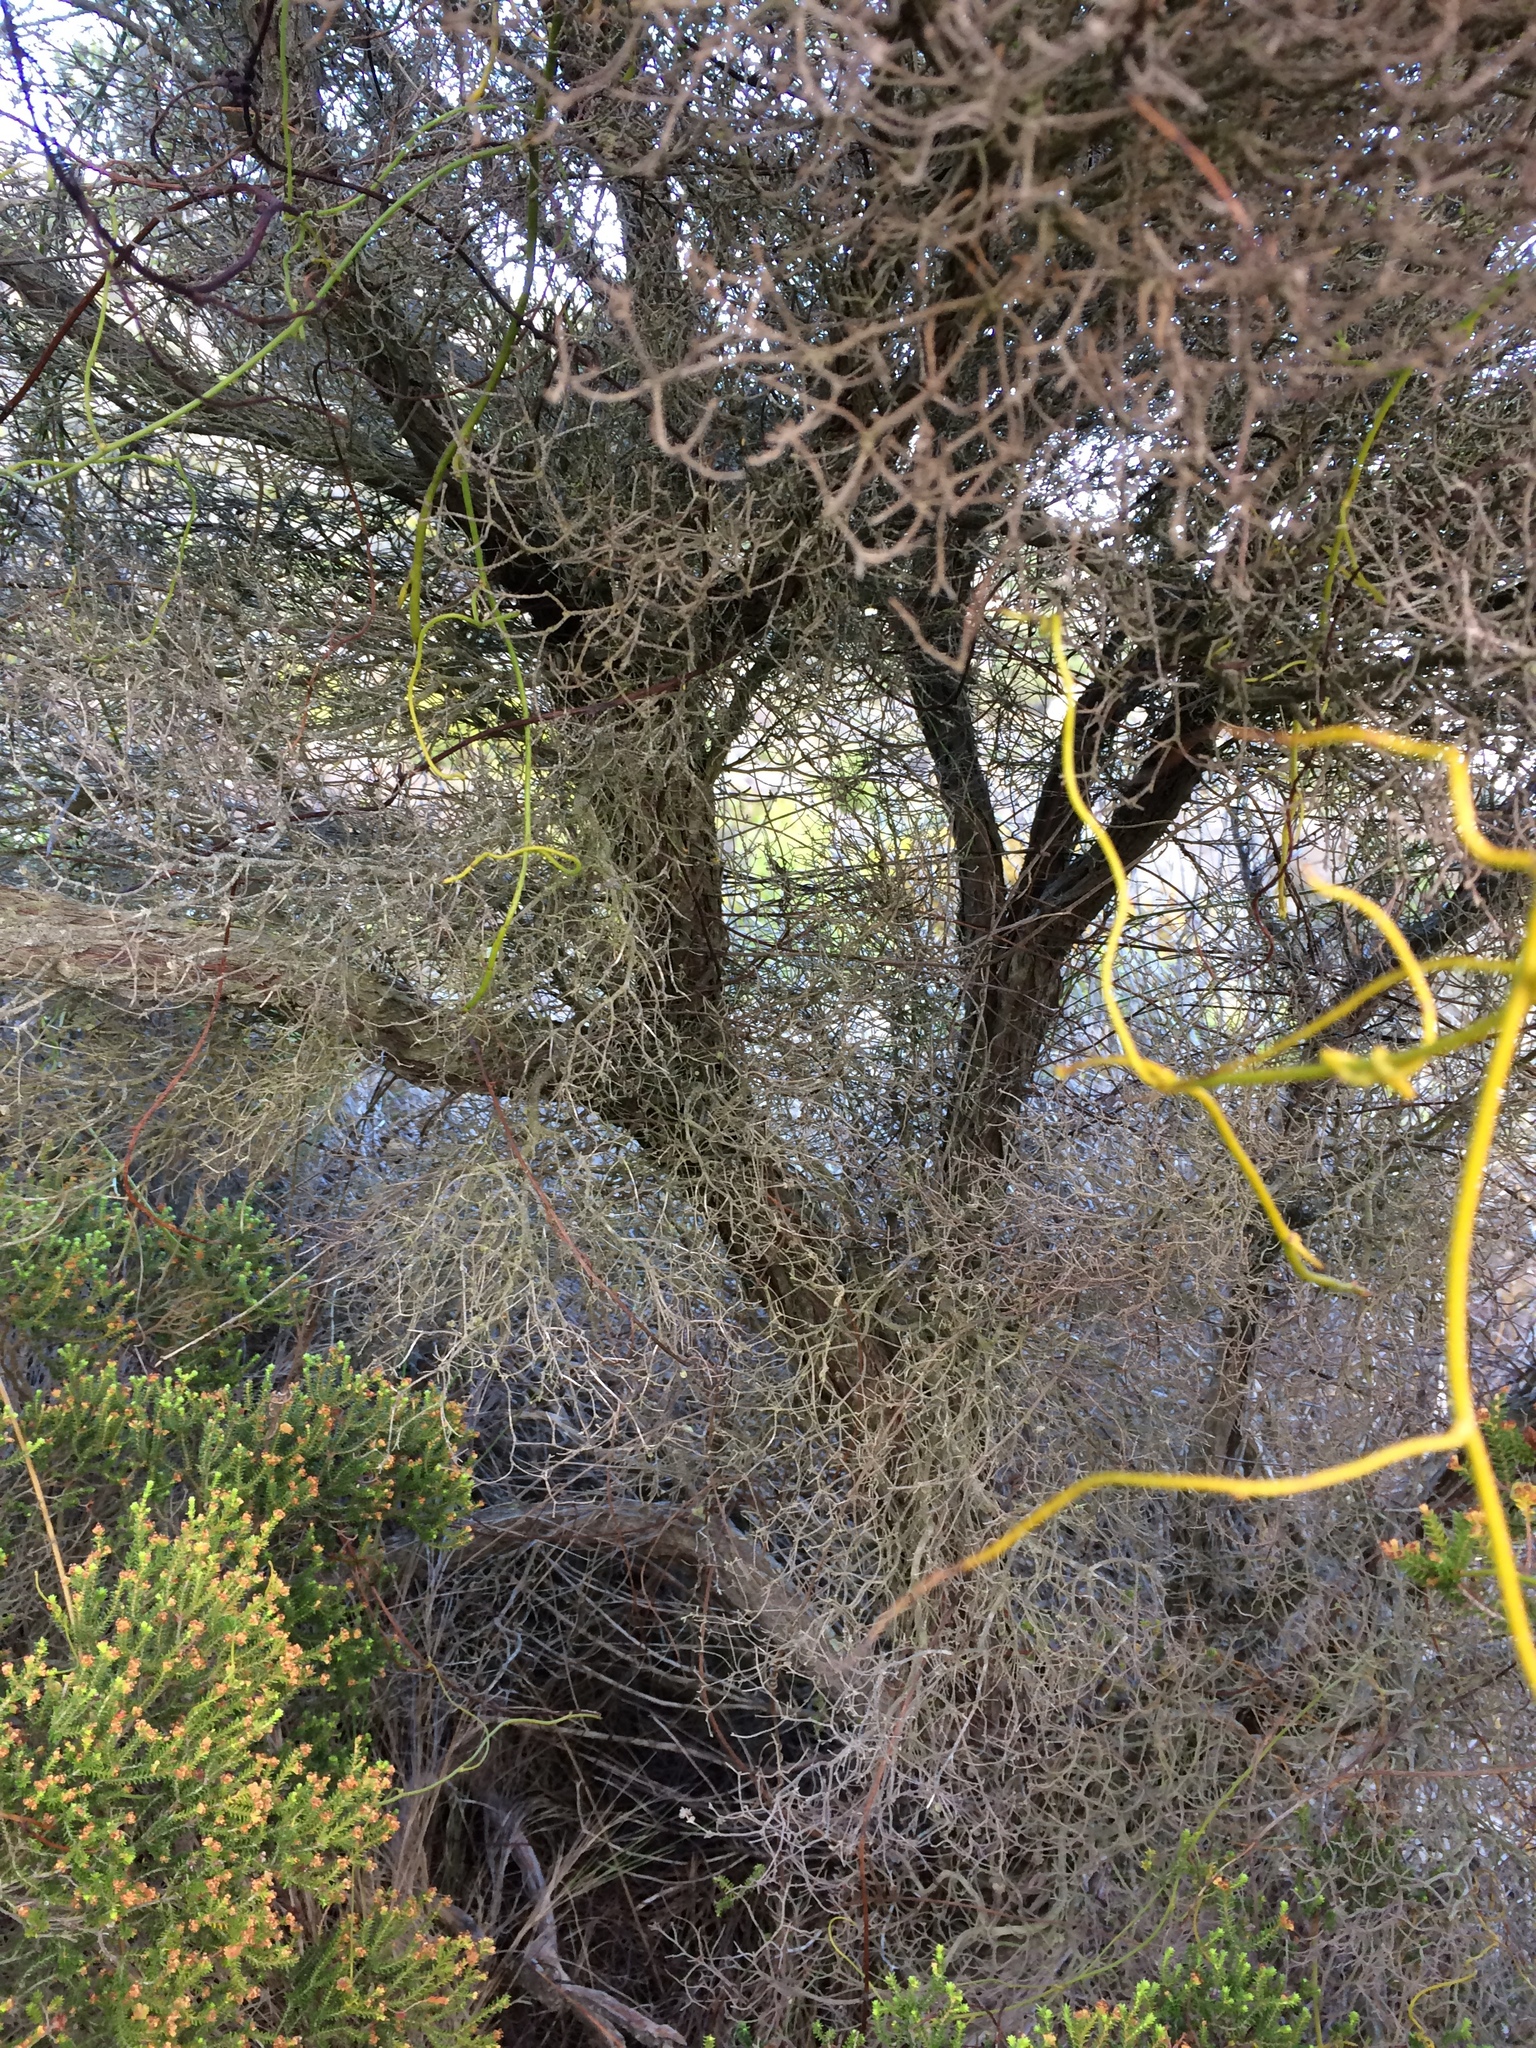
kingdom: Plantae
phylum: Tracheophyta
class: Magnoliopsida
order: Ericales
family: Ericaceae
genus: Erica
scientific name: Erica tristis
